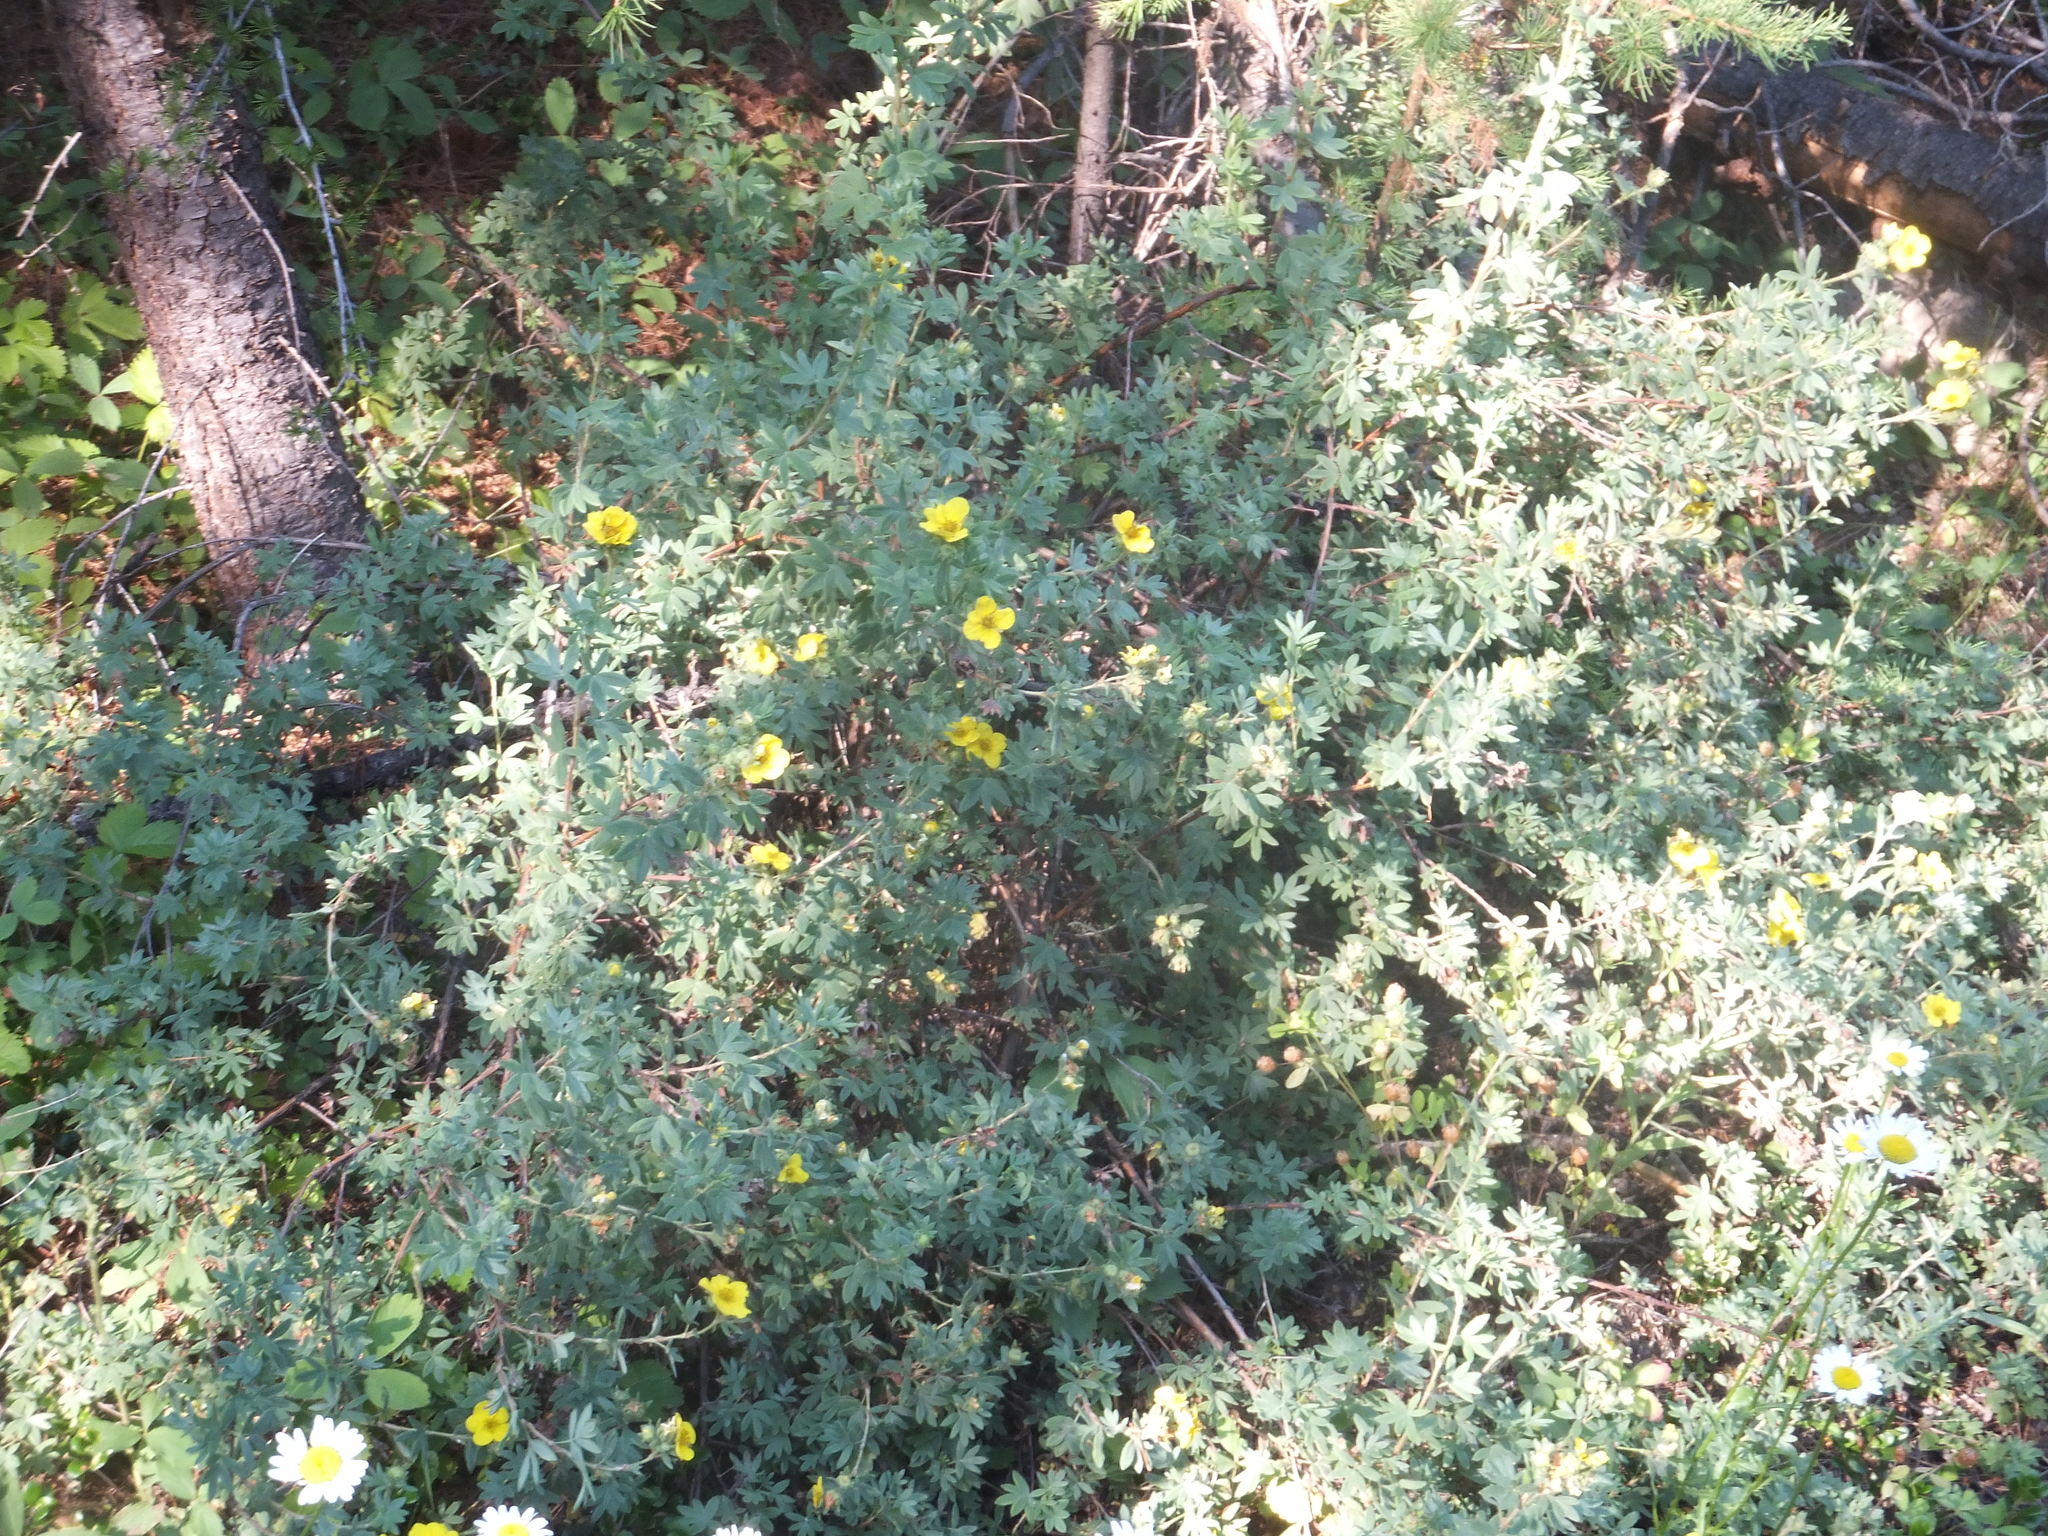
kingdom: Plantae
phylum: Tracheophyta
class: Magnoliopsida
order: Rosales
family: Rosaceae
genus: Dasiphora
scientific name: Dasiphora fruticosa
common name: Shrubby cinquefoil
